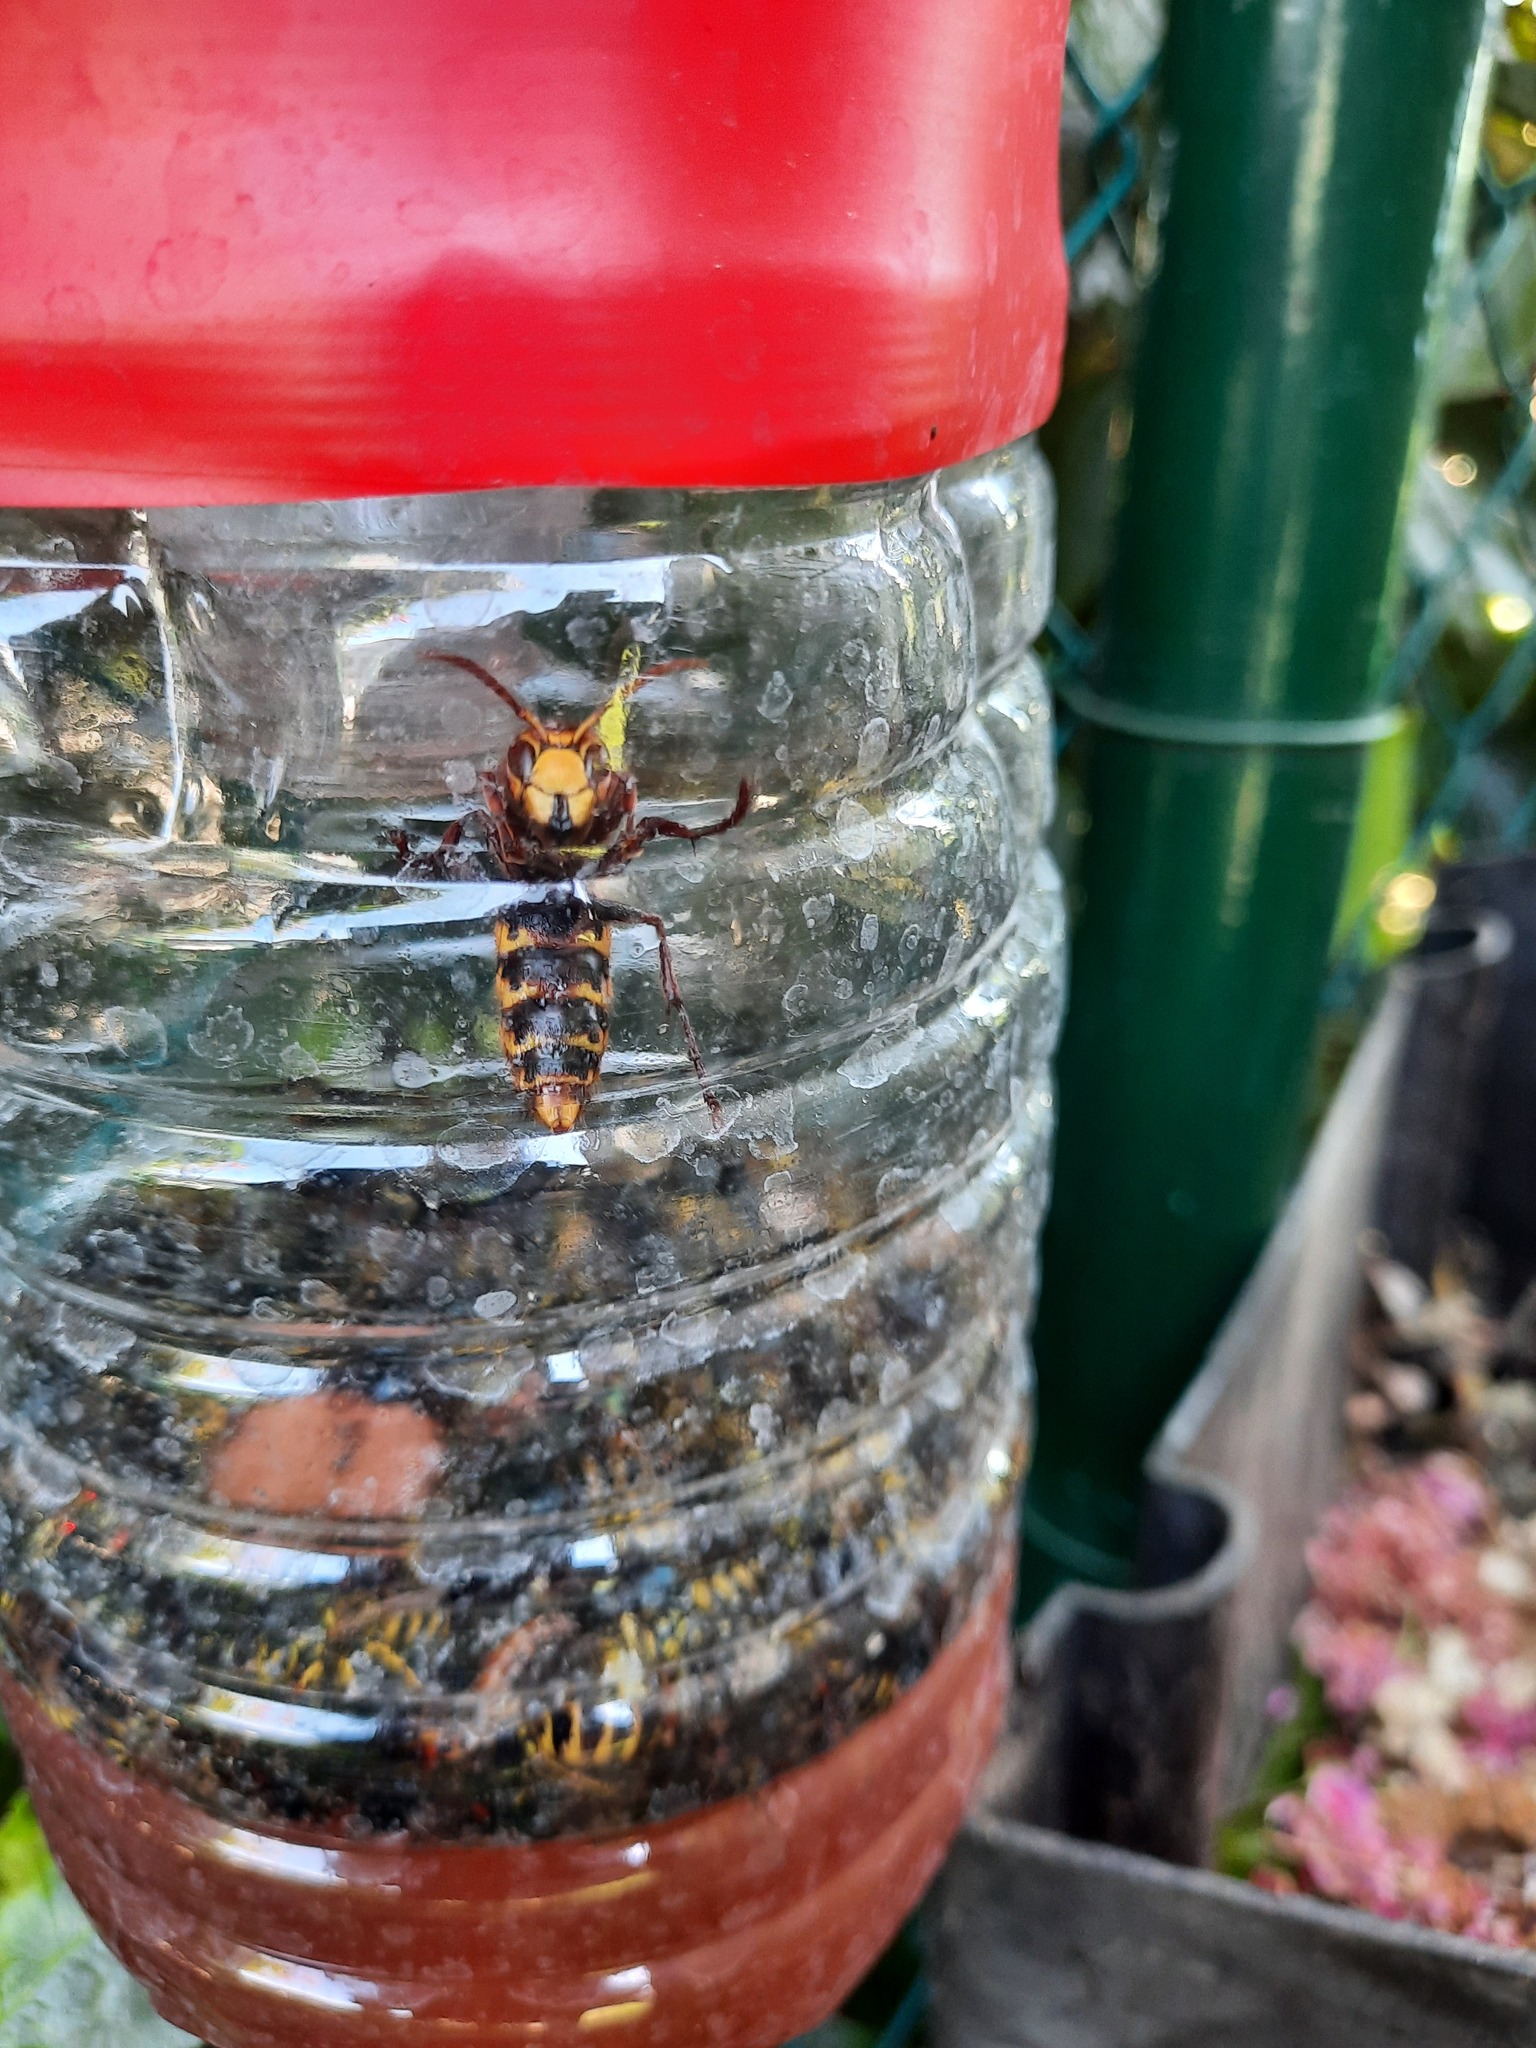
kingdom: Animalia
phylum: Arthropoda
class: Insecta
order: Hymenoptera
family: Vespidae
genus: Vespa
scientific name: Vespa crabro
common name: Hornet
